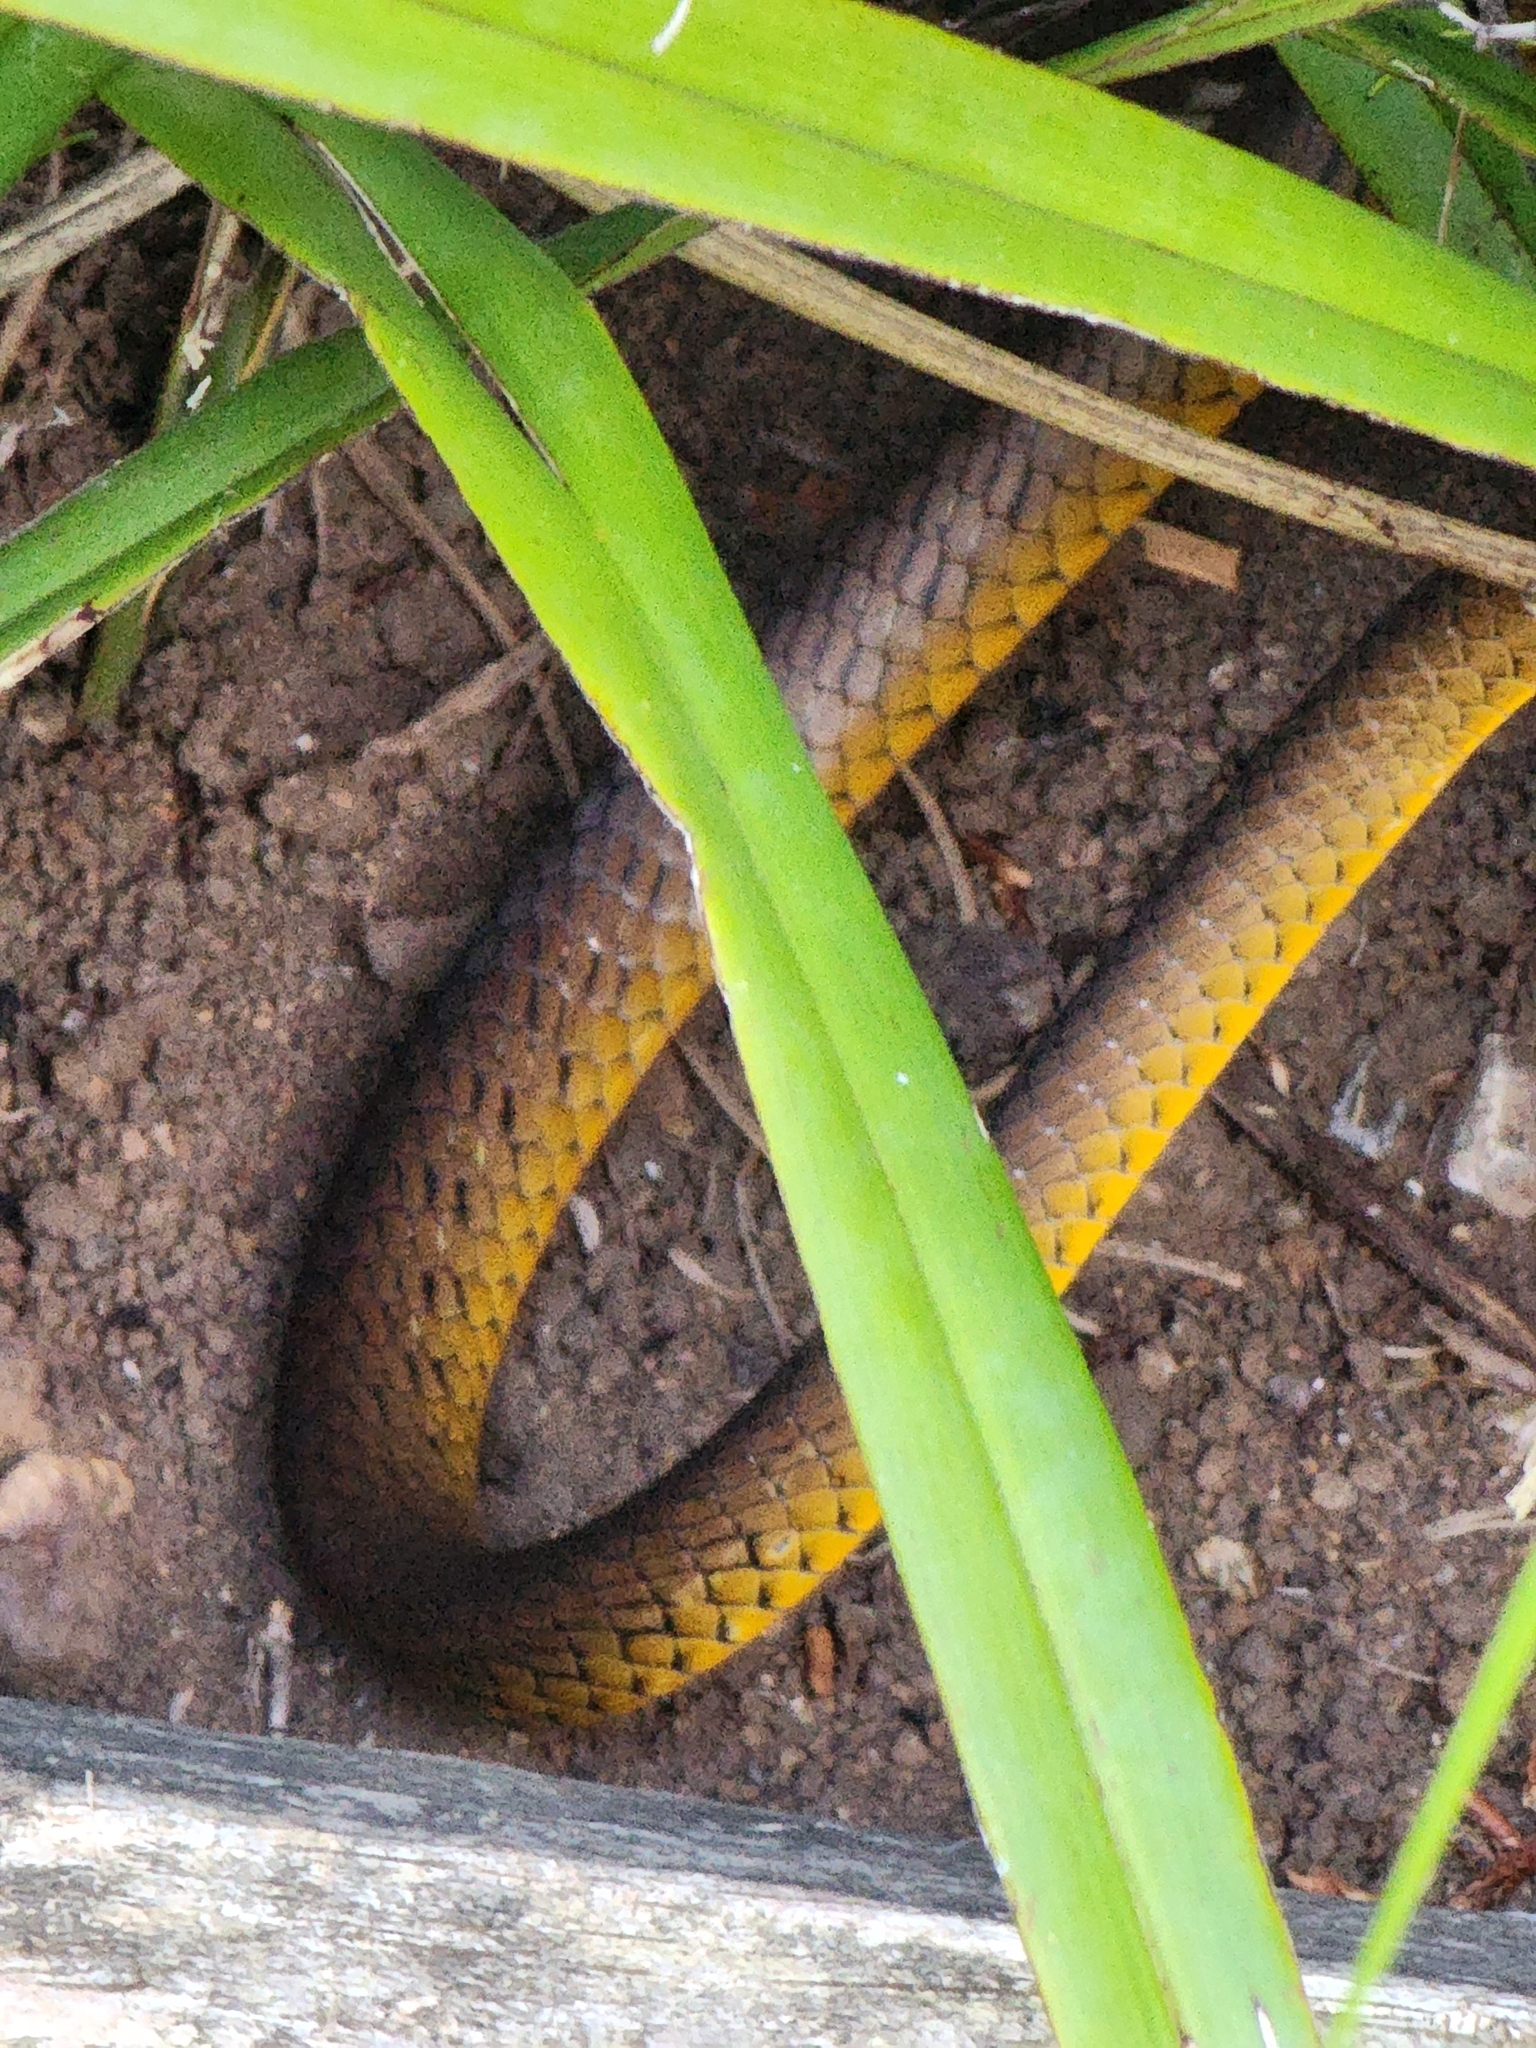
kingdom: Animalia
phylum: Chordata
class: Squamata
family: Colubridae
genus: Dendrelaphis
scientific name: Dendrelaphis punctulatus
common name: Common tree snake
